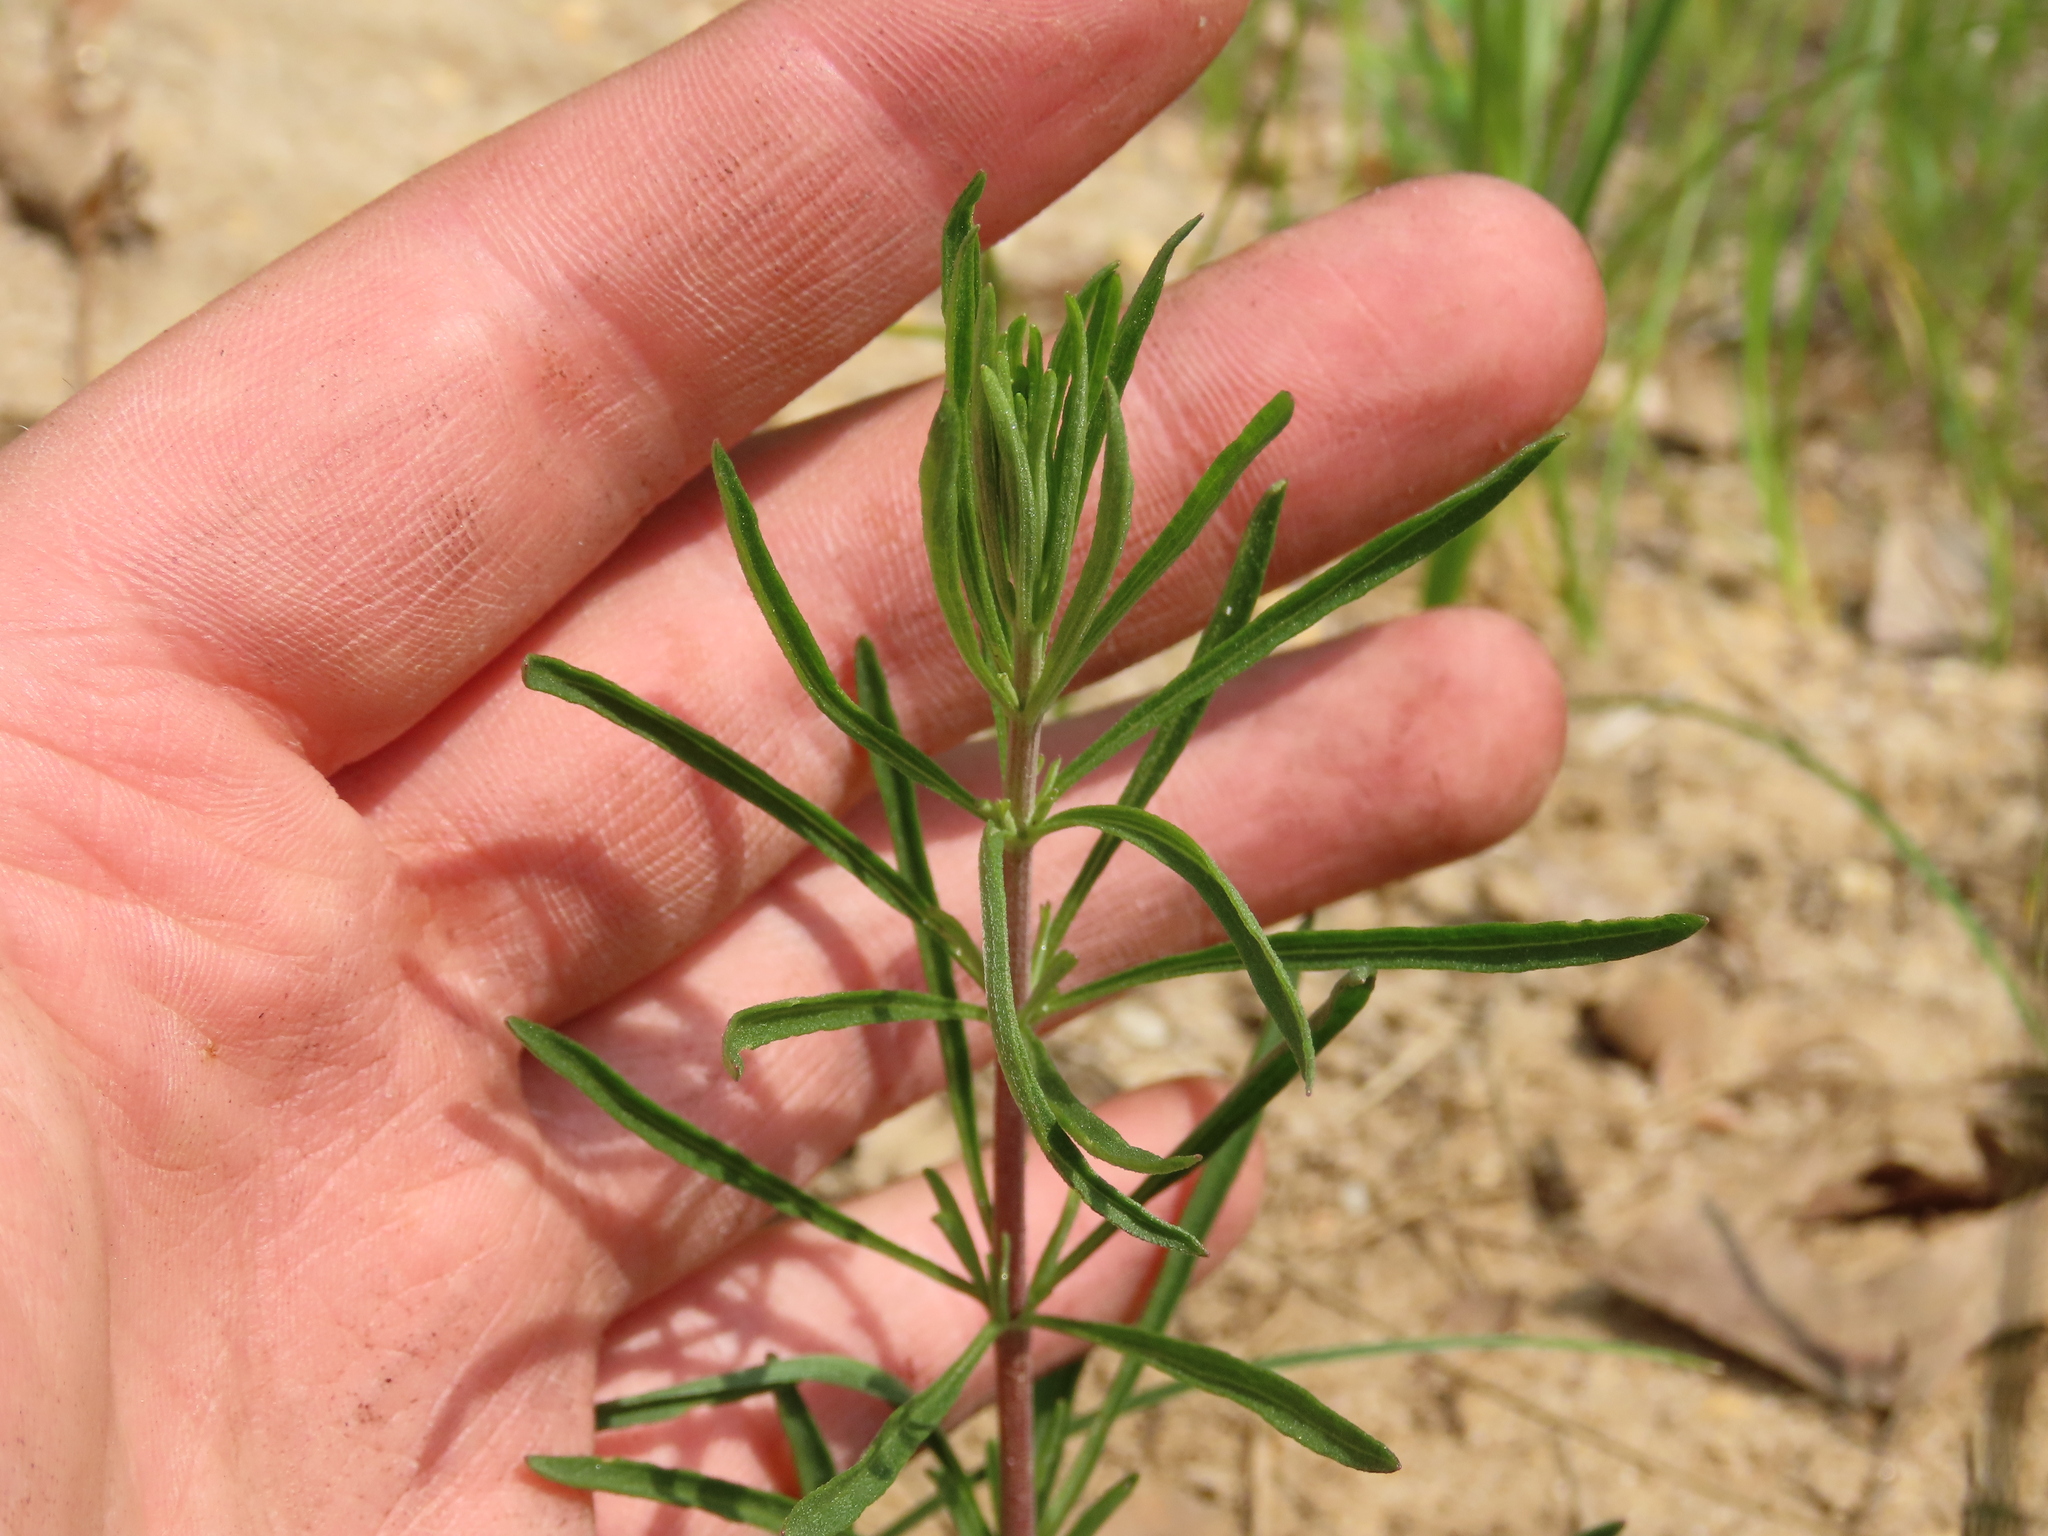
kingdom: Plantae
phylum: Tracheophyta
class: Magnoliopsida
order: Asterales
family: Asteraceae
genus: Eupatorium
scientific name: Eupatorium hyssopifolium
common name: Hyssop-leaf thoroughwort
